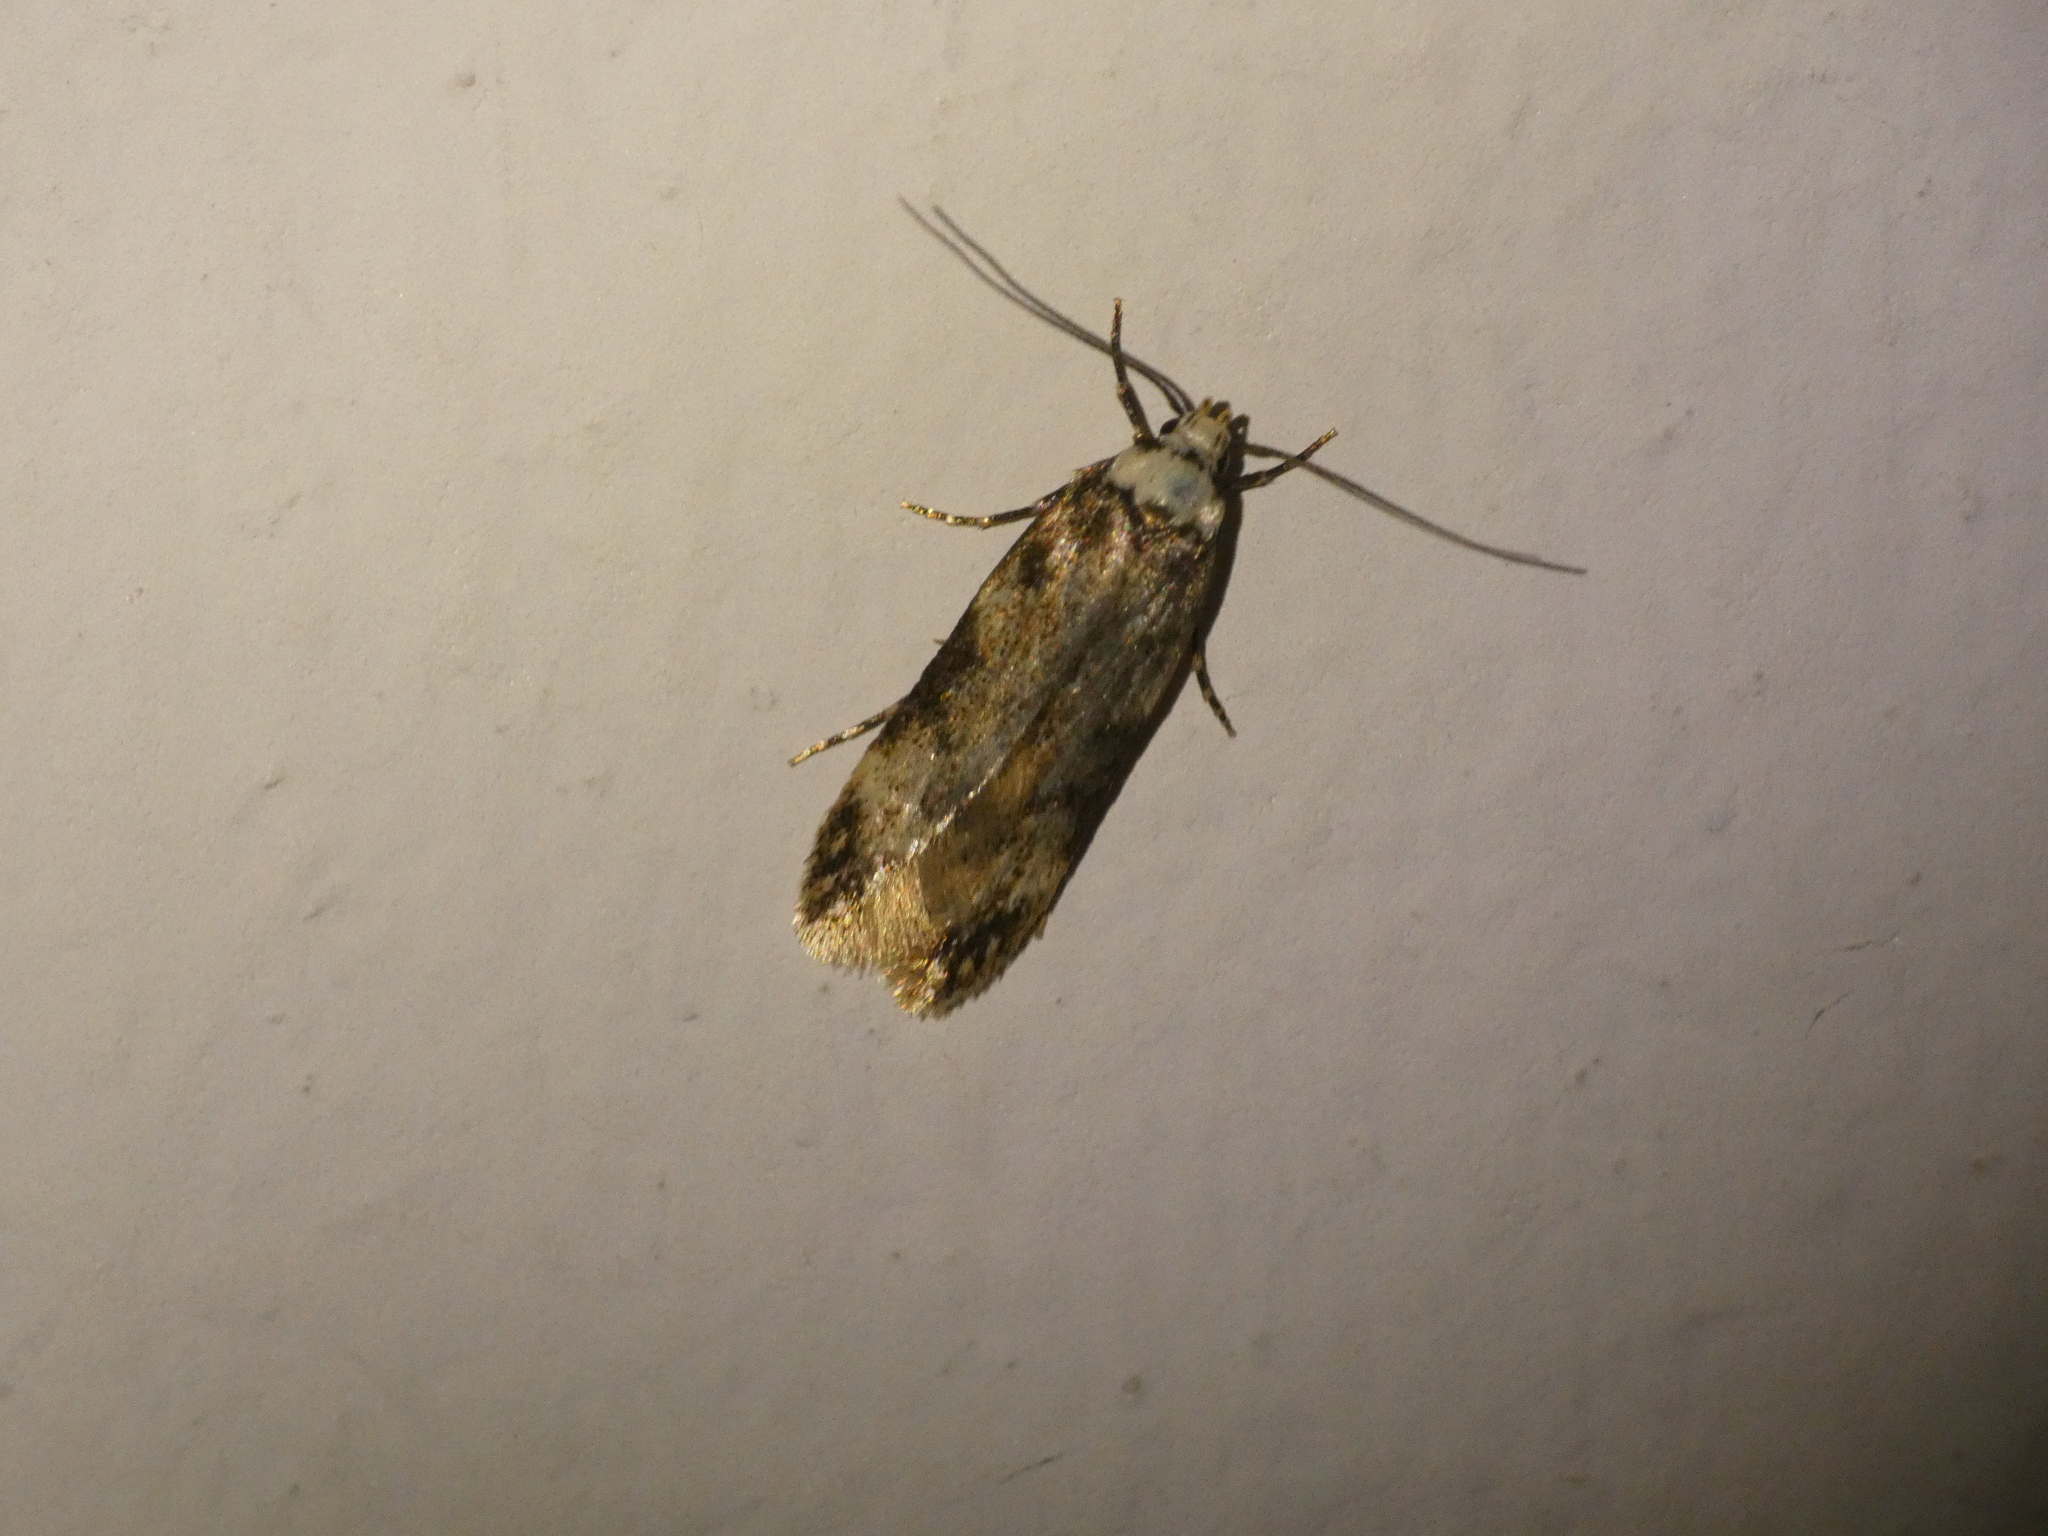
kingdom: Animalia
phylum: Arthropoda
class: Insecta
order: Lepidoptera
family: Oecophoridae
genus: Endrosis
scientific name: Endrosis sarcitrella
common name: White-shouldered house moth
